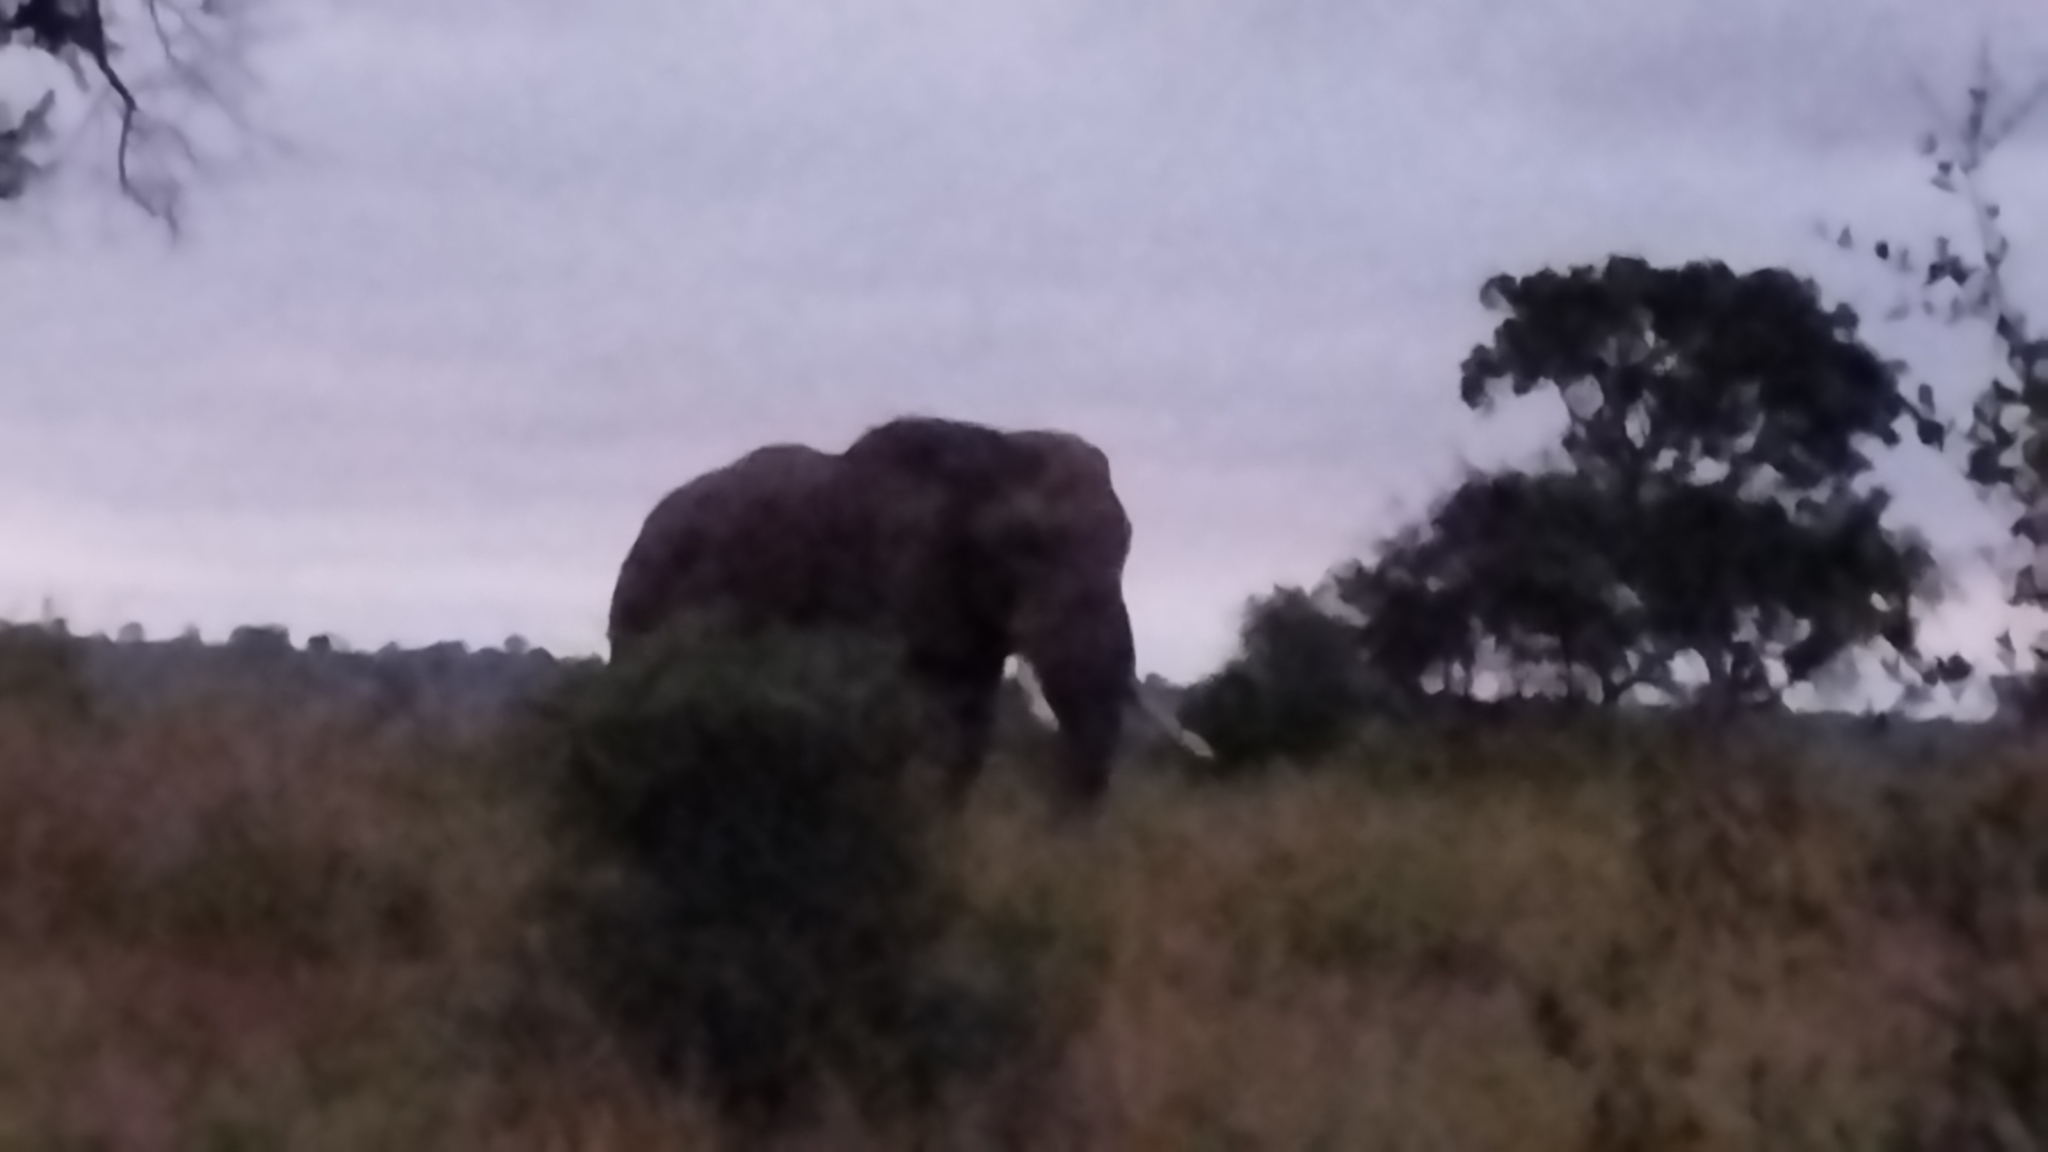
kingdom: Animalia
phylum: Chordata
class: Mammalia
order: Proboscidea
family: Elephantidae
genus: Loxodonta
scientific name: Loxodonta africana
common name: African elephant
